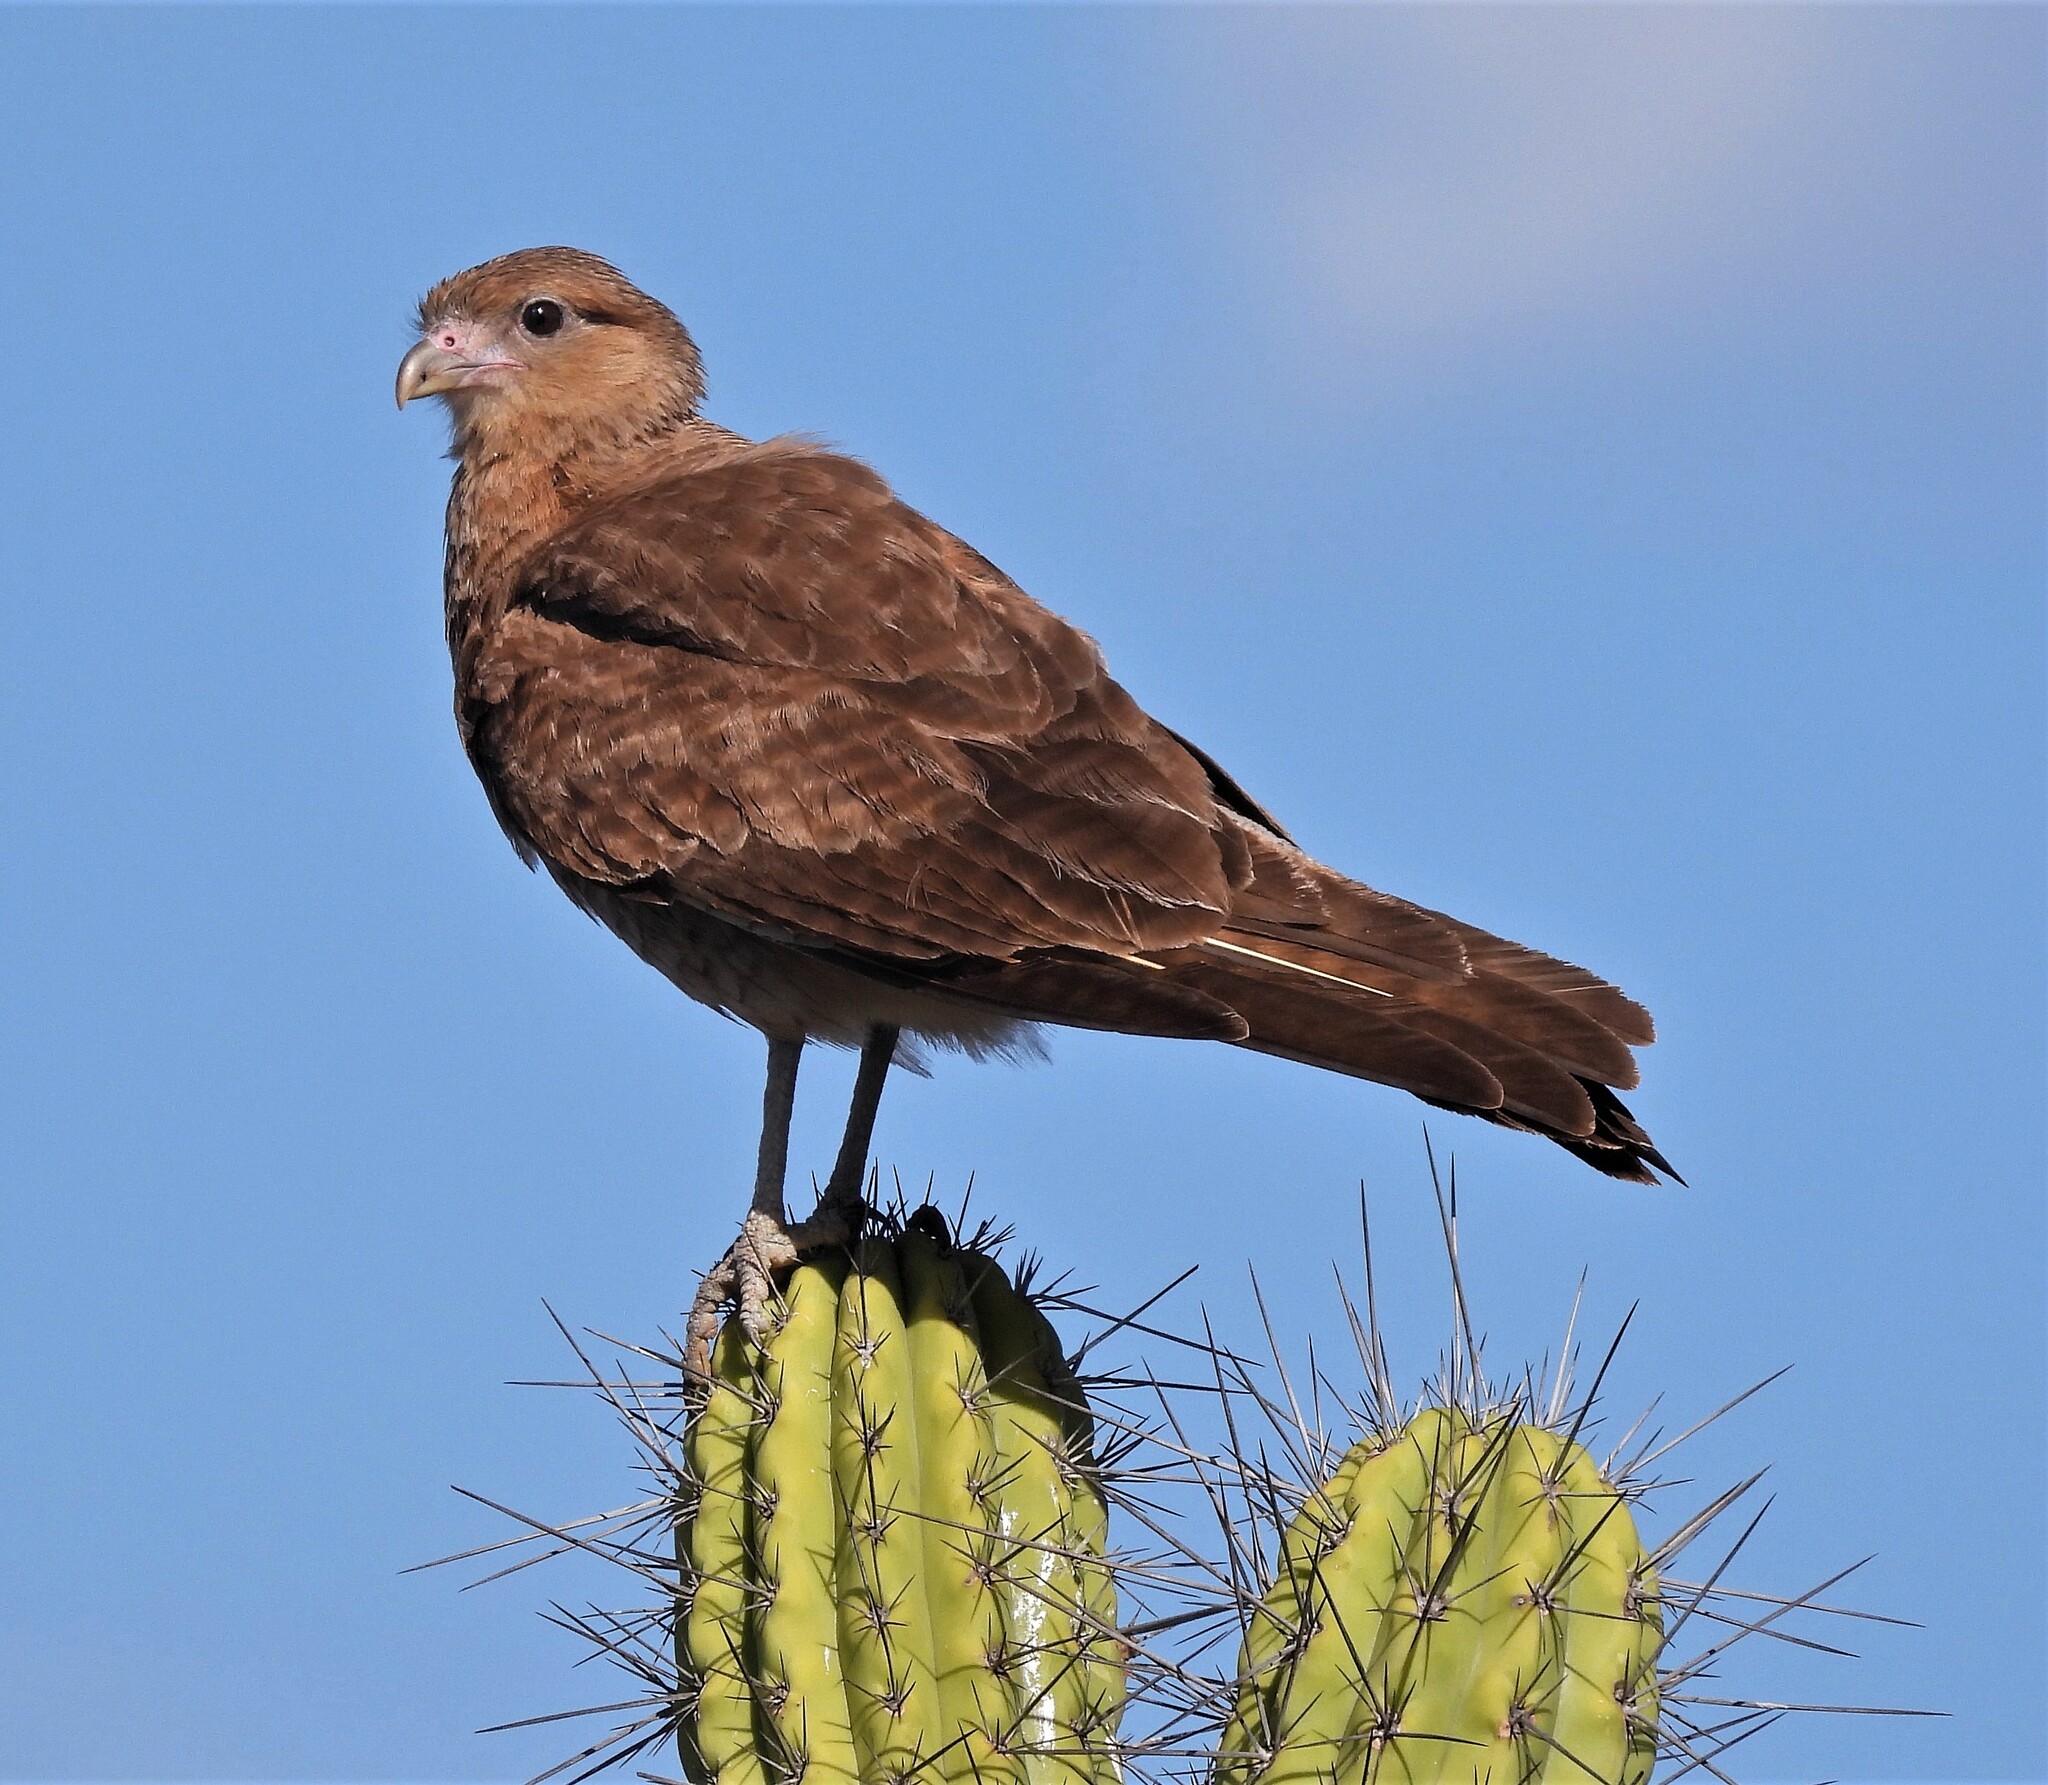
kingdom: Animalia
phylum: Chordata
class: Aves
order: Falconiformes
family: Falconidae
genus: Daptrius
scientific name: Daptrius
